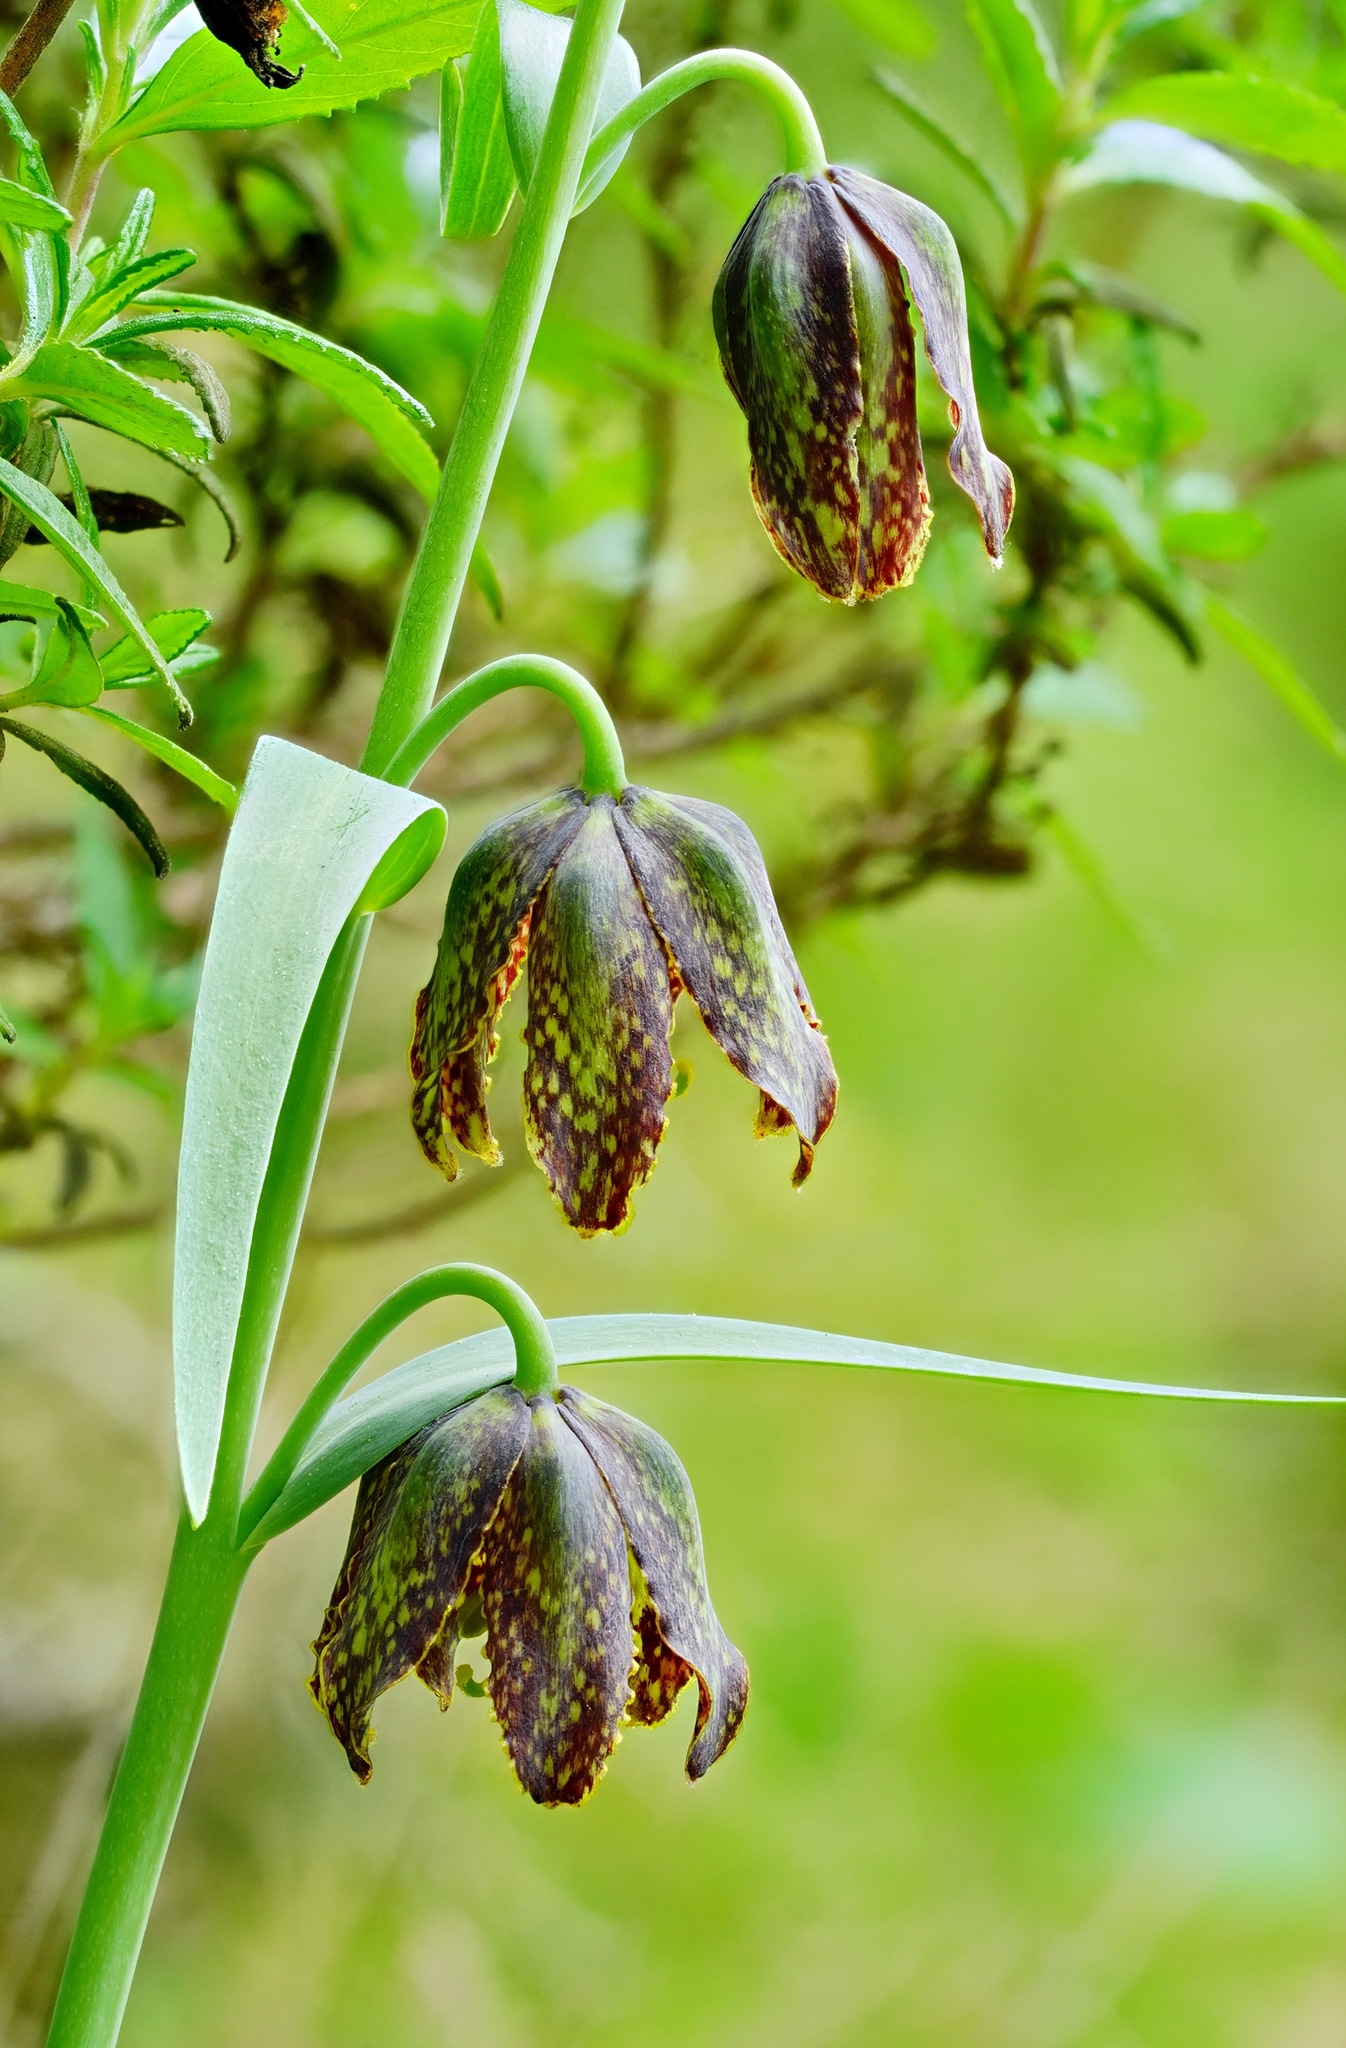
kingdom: Plantae
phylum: Tracheophyta
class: Liliopsida
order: Liliales
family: Liliaceae
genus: Fritillaria
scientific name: Fritillaria affinis
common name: Ojai fritillary
